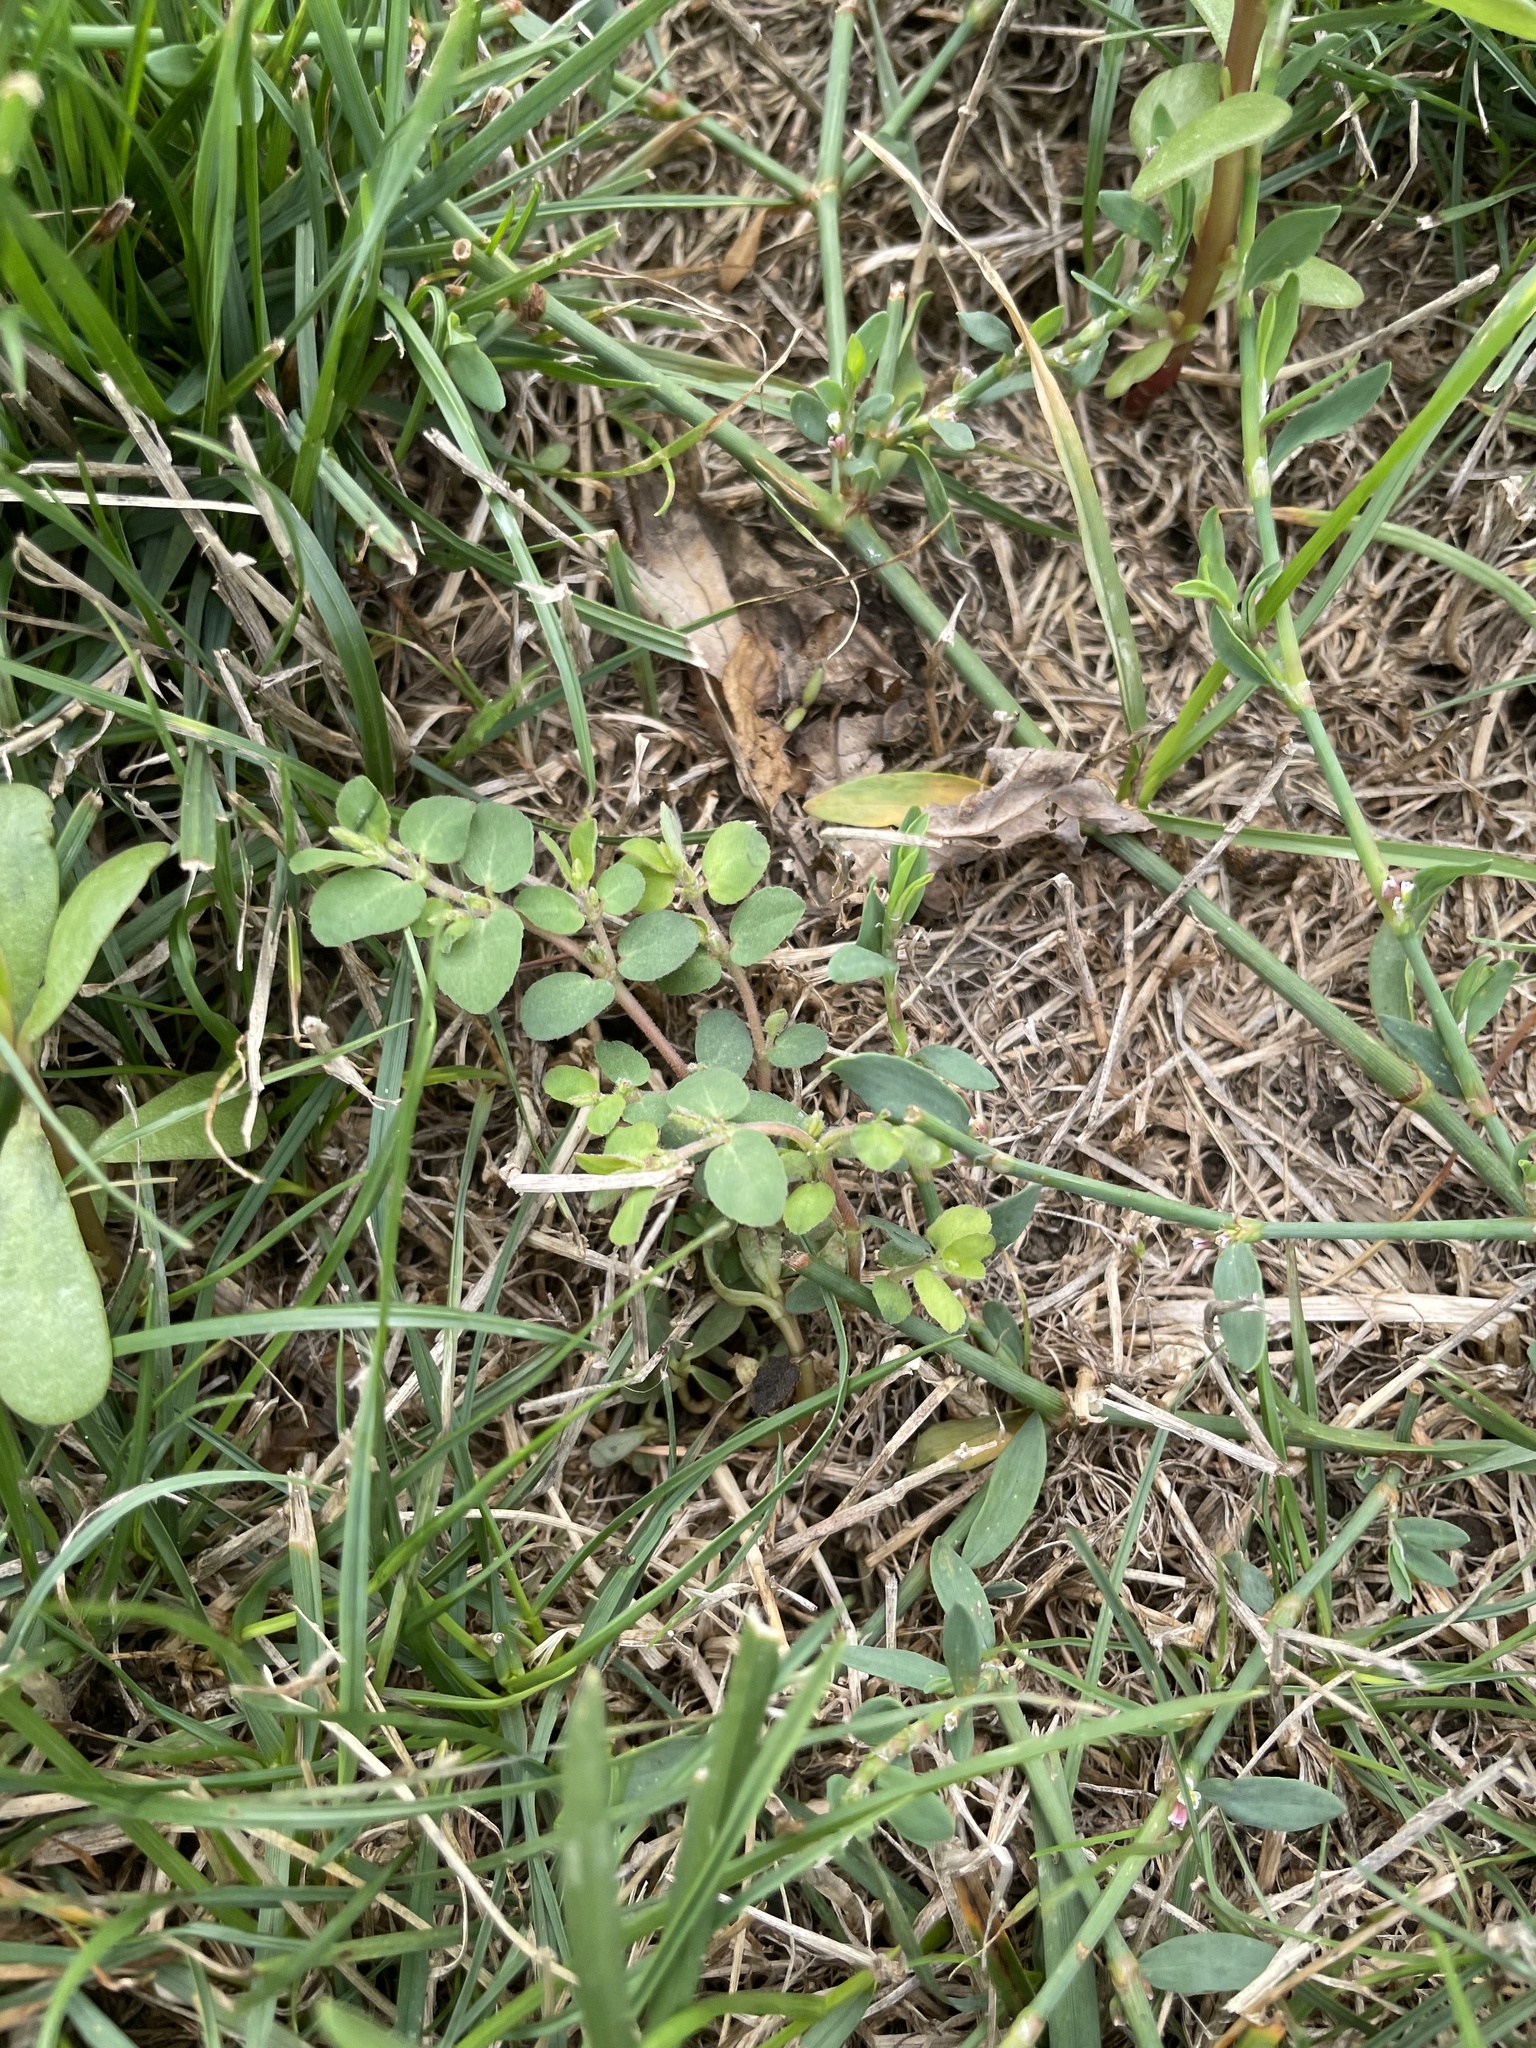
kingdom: Plantae
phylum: Tracheophyta
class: Magnoliopsida
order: Malpighiales
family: Euphorbiaceae
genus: Euphorbia
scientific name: Euphorbia prostrata
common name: Prostrate sandmat
